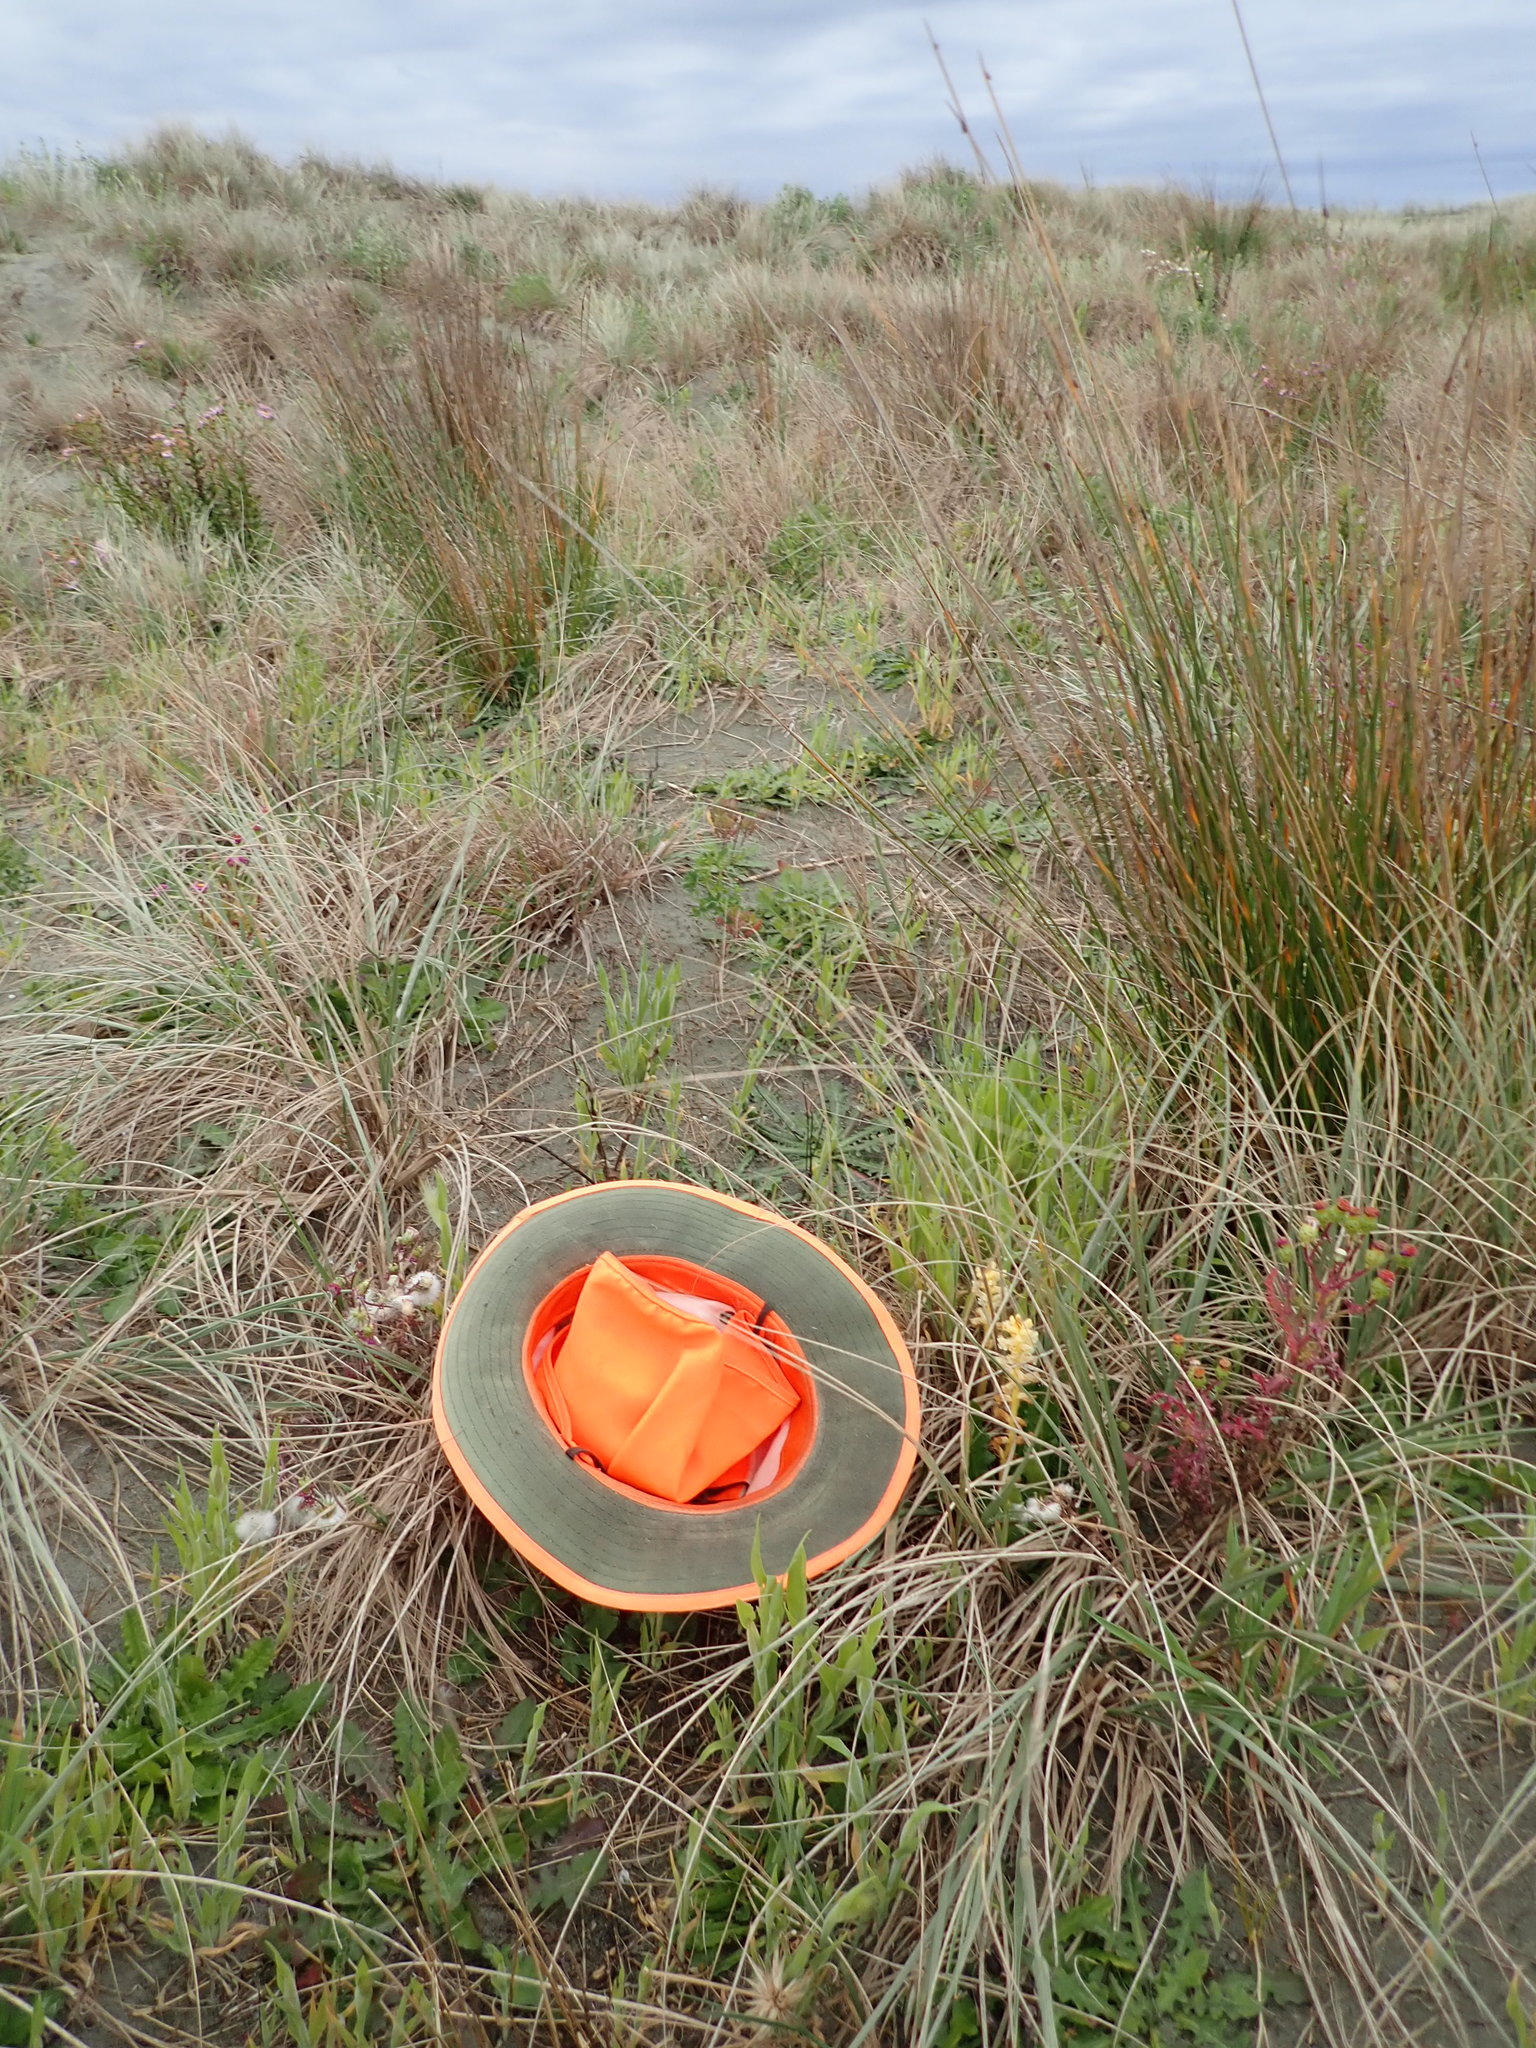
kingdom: Plantae
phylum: Tracheophyta
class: Magnoliopsida
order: Lamiales
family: Orobanchaceae
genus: Orobanche
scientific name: Orobanche minor
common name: Common broomrape
